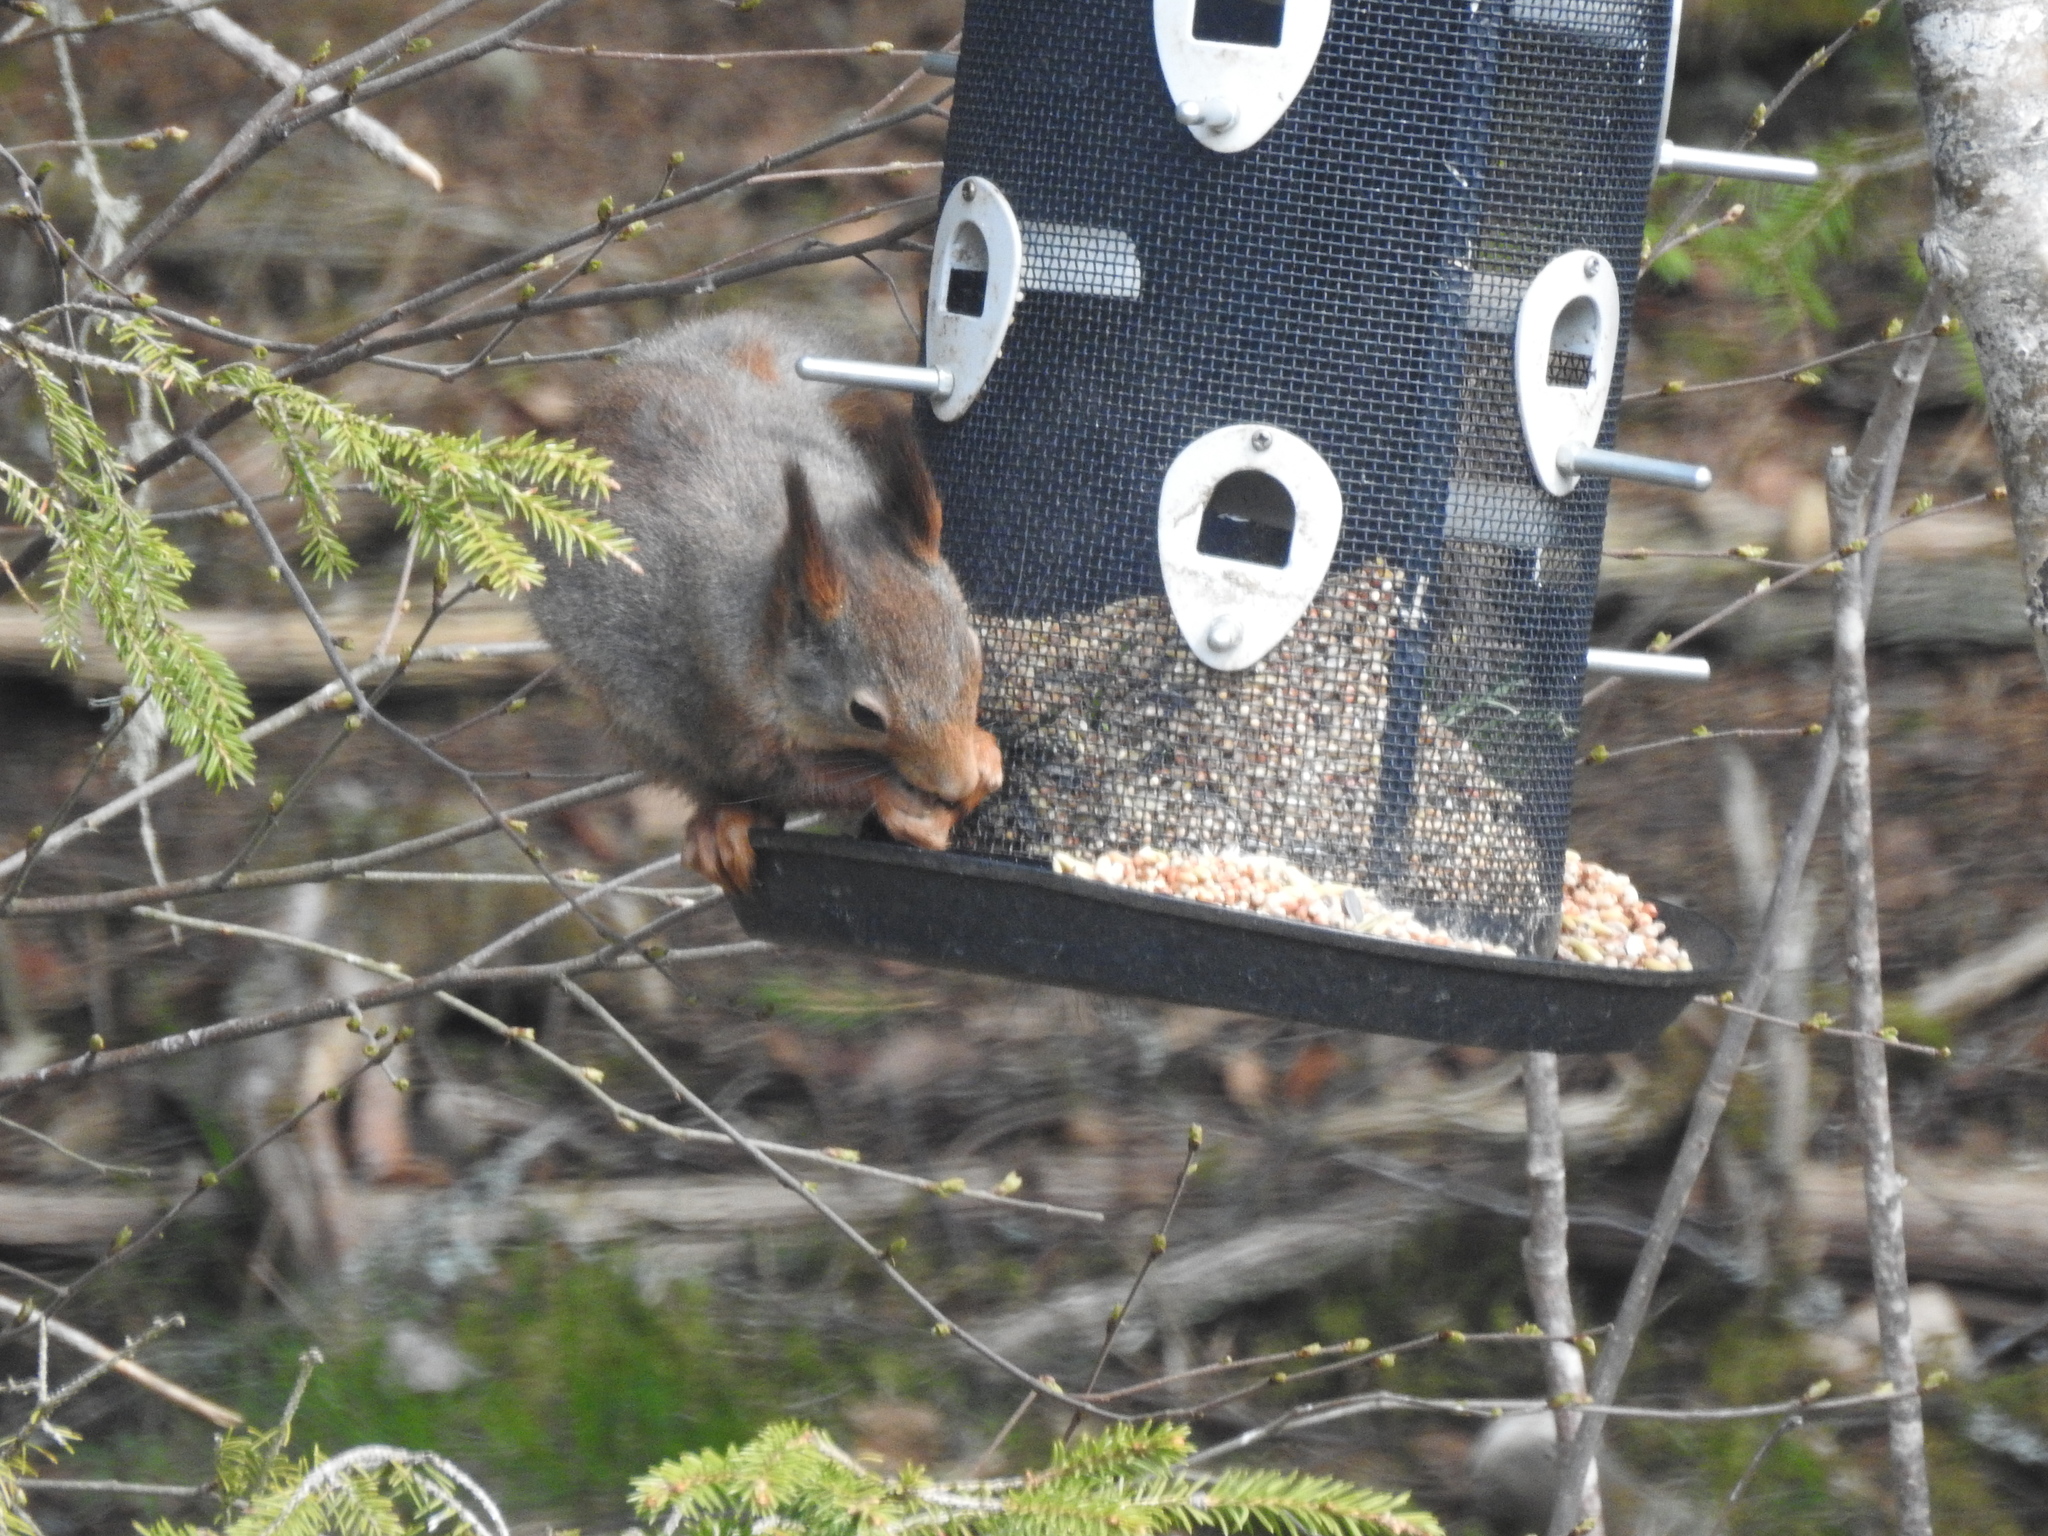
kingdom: Animalia
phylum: Chordata
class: Mammalia
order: Rodentia
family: Sciuridae
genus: Sciurus
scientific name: Sciurus vulgaris
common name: Eurasian red squirrel
